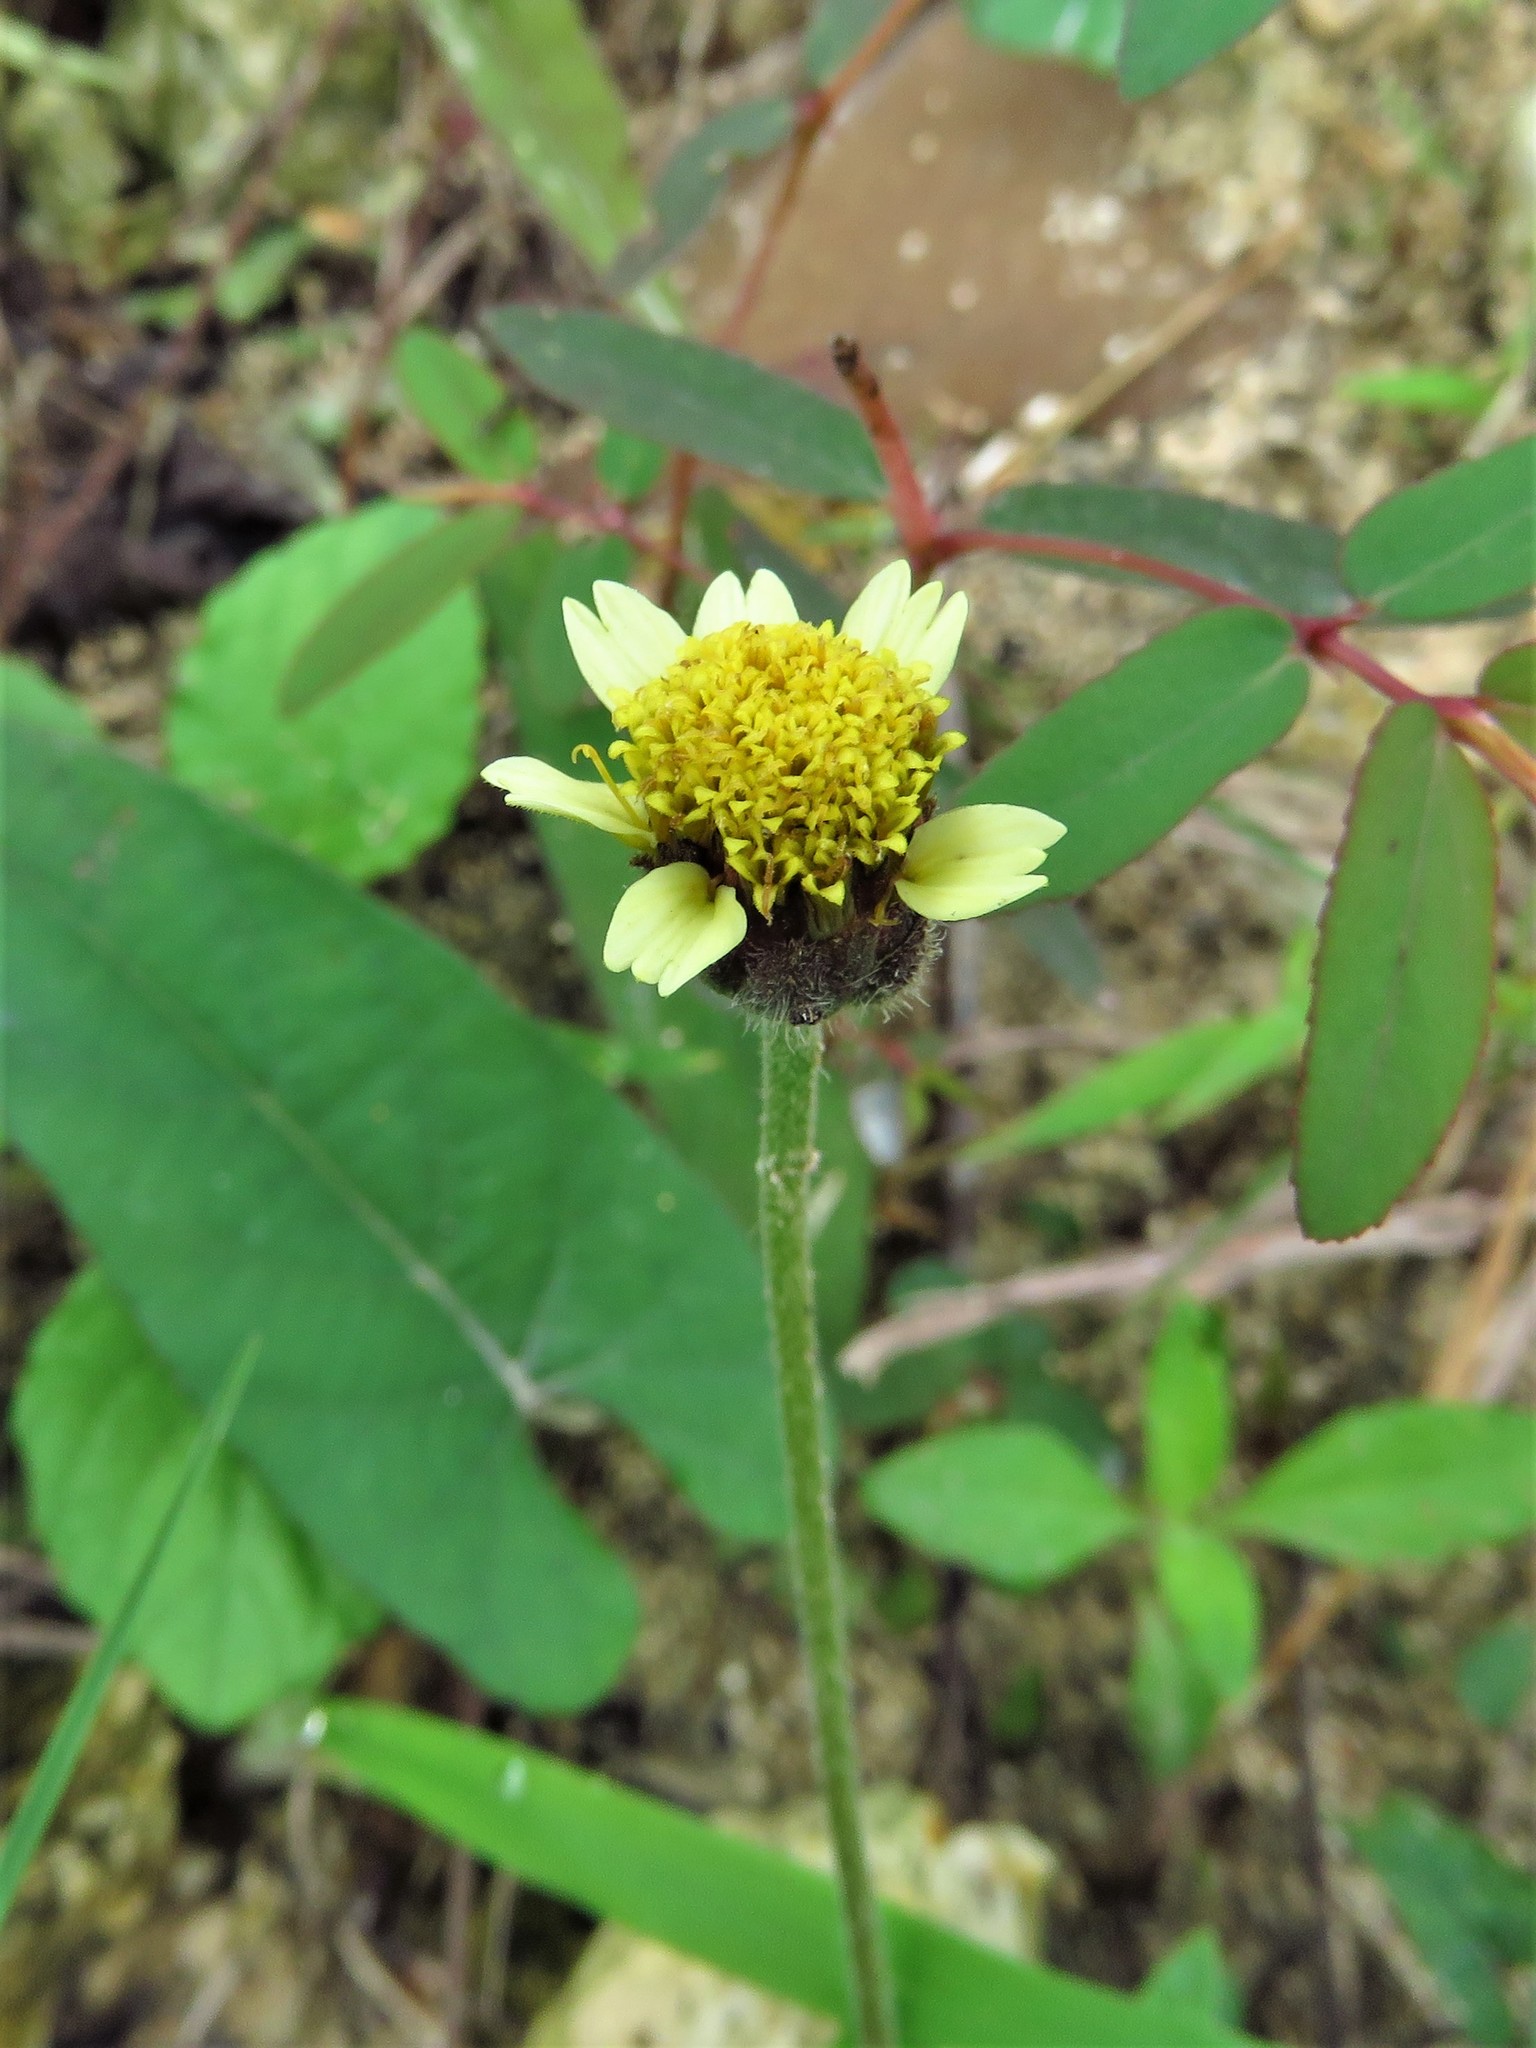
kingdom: Plantae
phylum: Tracheophyta
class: Magnoliopsida
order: Asterales
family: Asteraceae
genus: Tridax
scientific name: Tridax procumbens
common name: Coatbuttons
